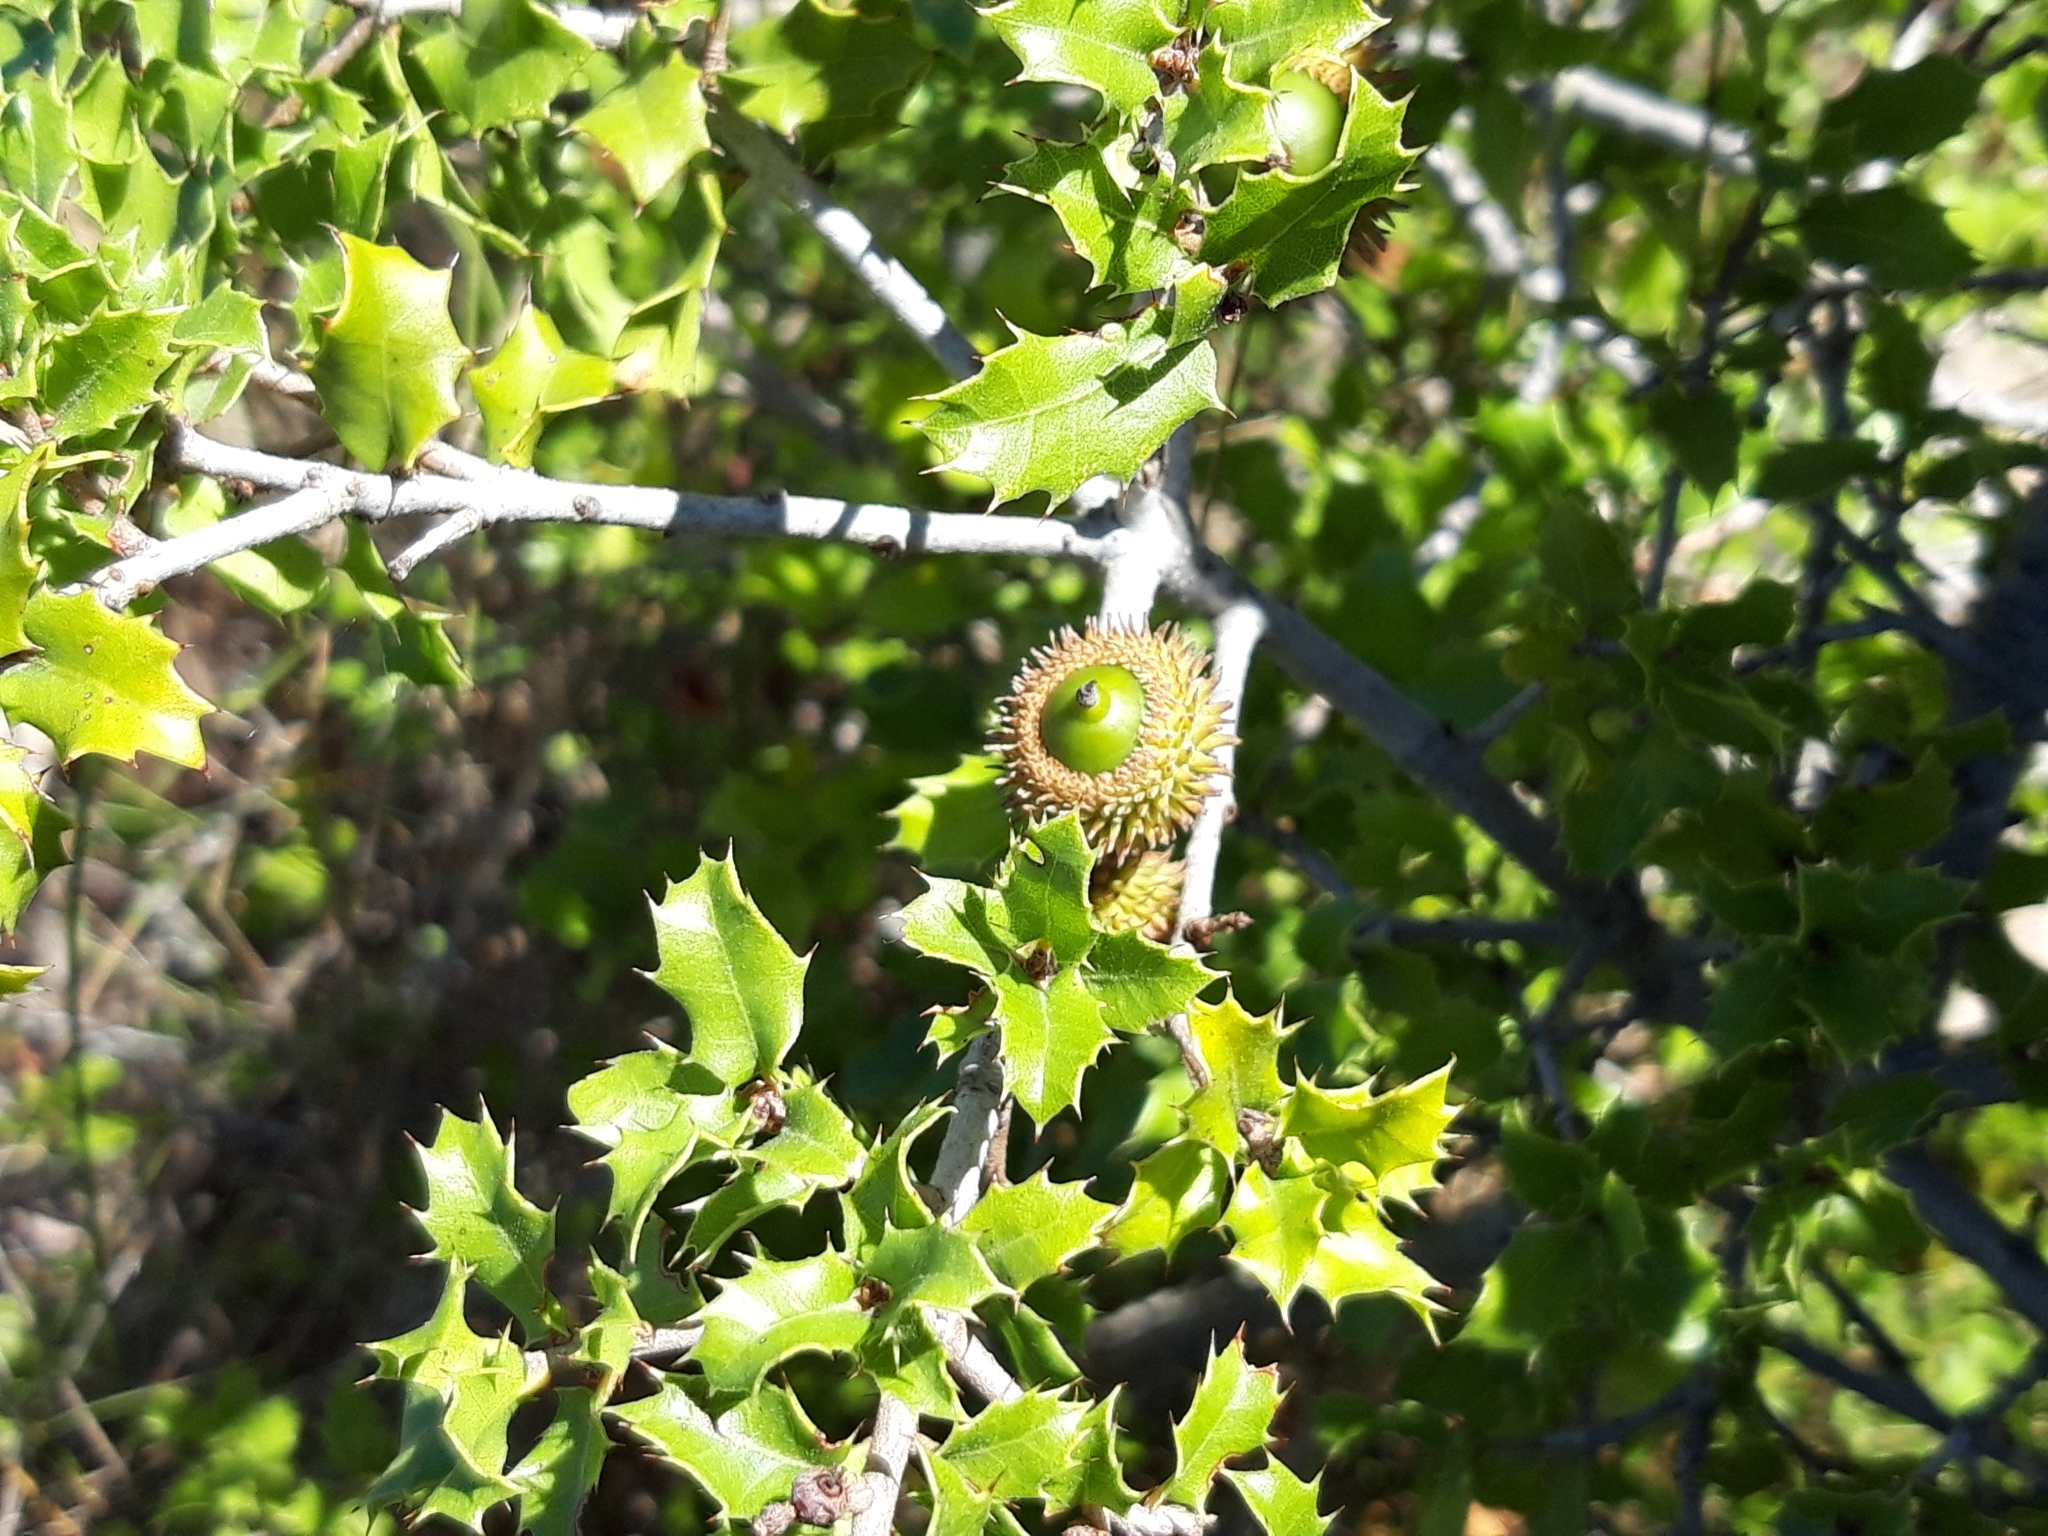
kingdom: Plantae
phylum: Tracheophyta
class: Magnoliopsida
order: Fagales
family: Fagaceae
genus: Quercus
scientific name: Quercus coccifera
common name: Kermes oak
